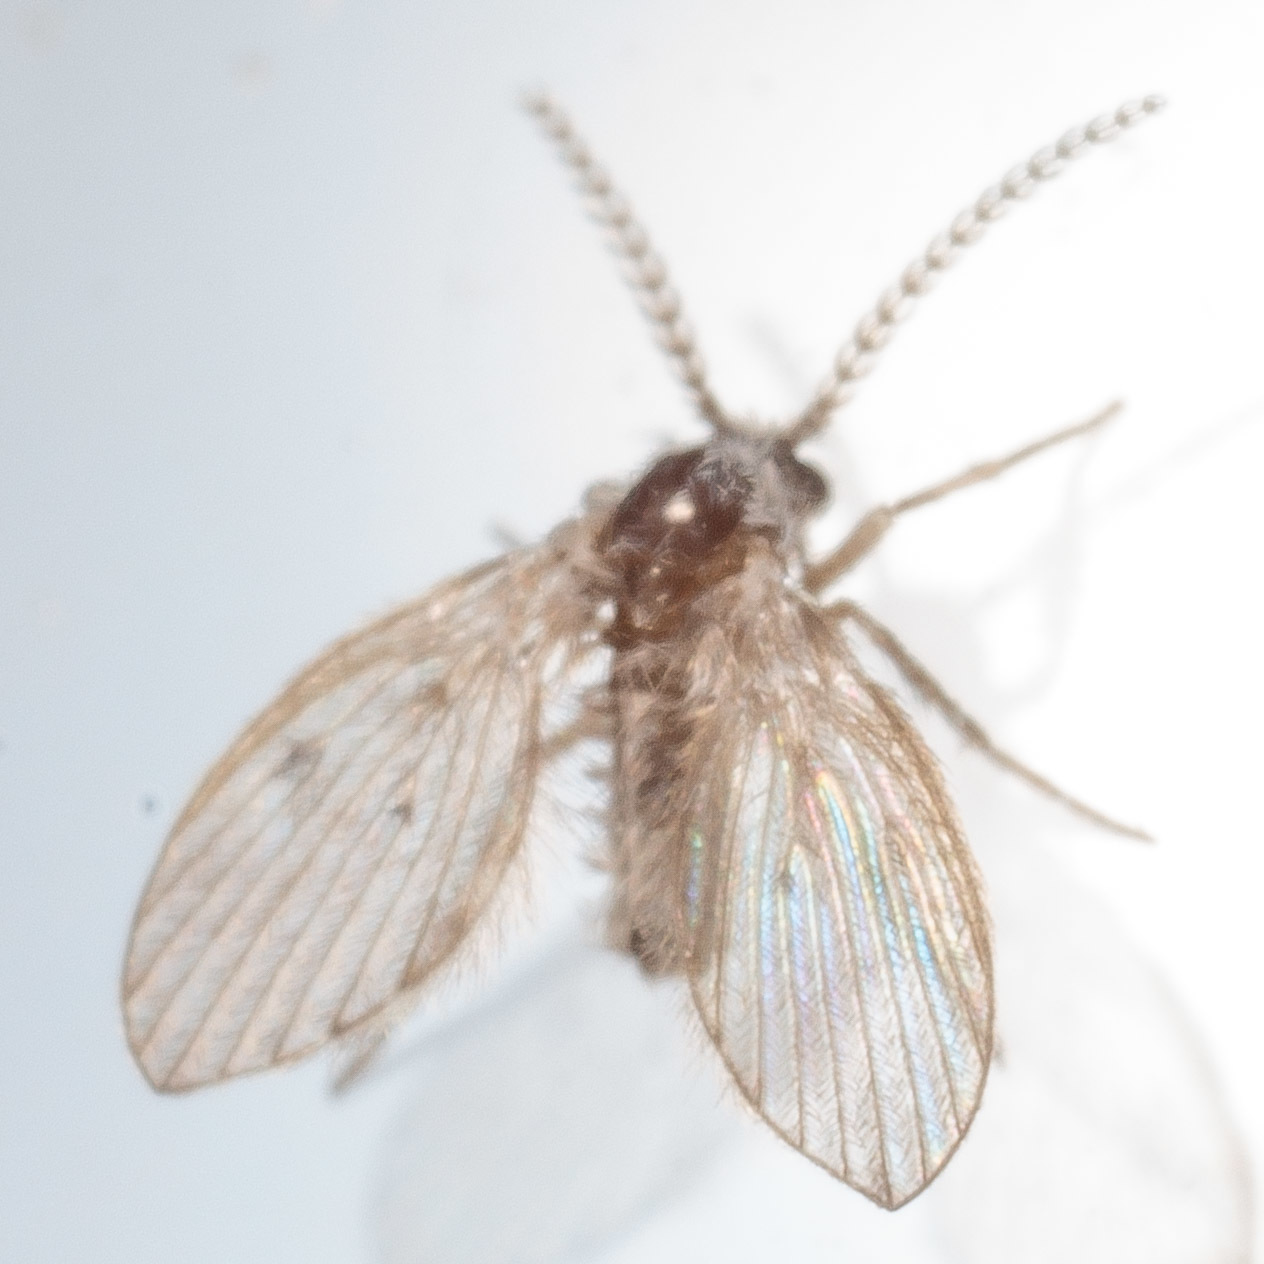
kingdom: Animalia
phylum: Arthropoda
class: Insecta
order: Diptera
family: Psychodidae
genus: Clogmia
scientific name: Clogmia albipunctatus
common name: White-spotted moth fly
